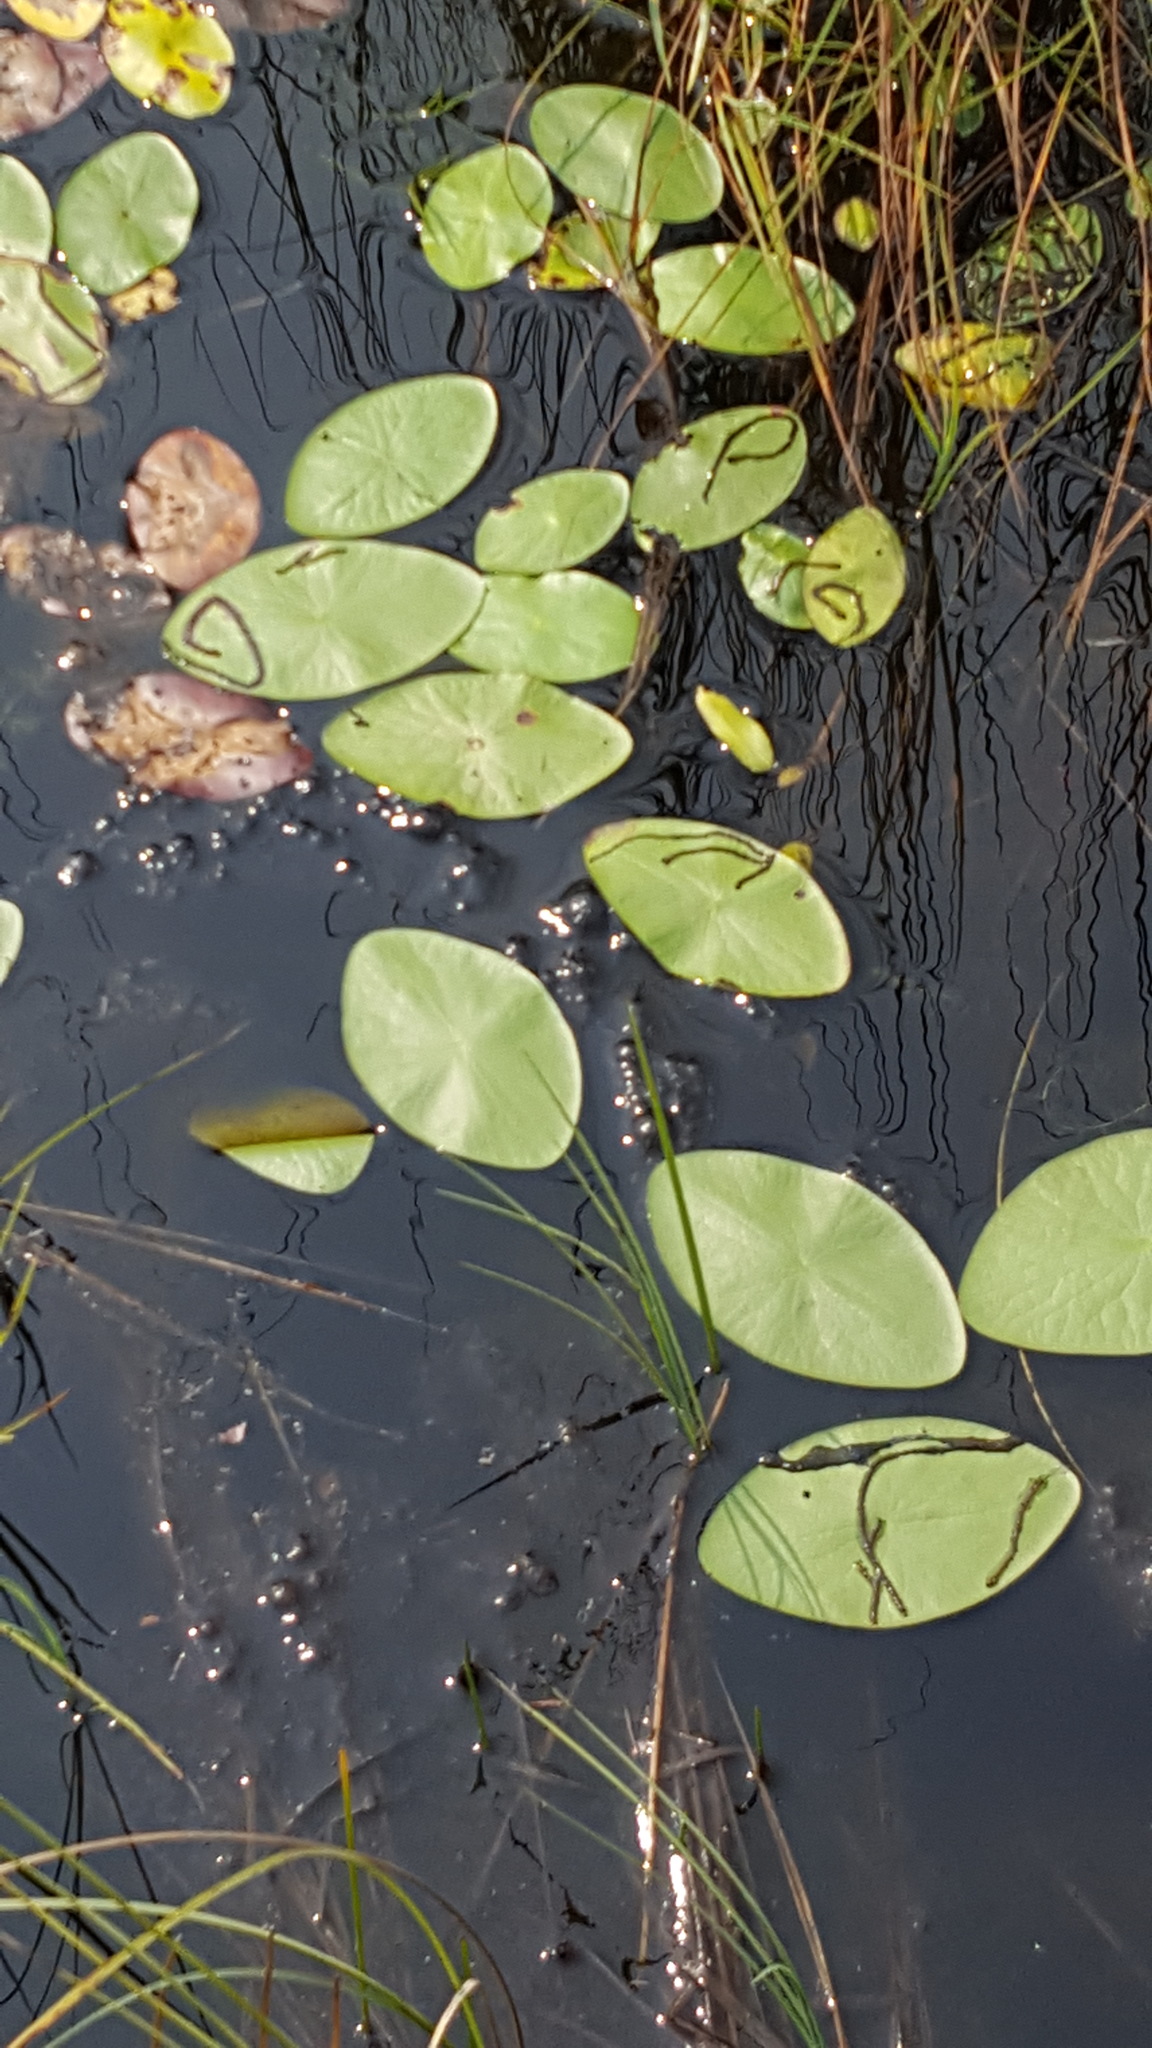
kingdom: Plantae
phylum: Tracheophyta
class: Magnoliopsida
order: Nymphaeales
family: Cabombaceae
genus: Brasenia
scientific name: Brasenia schreberi
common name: Water-shield
